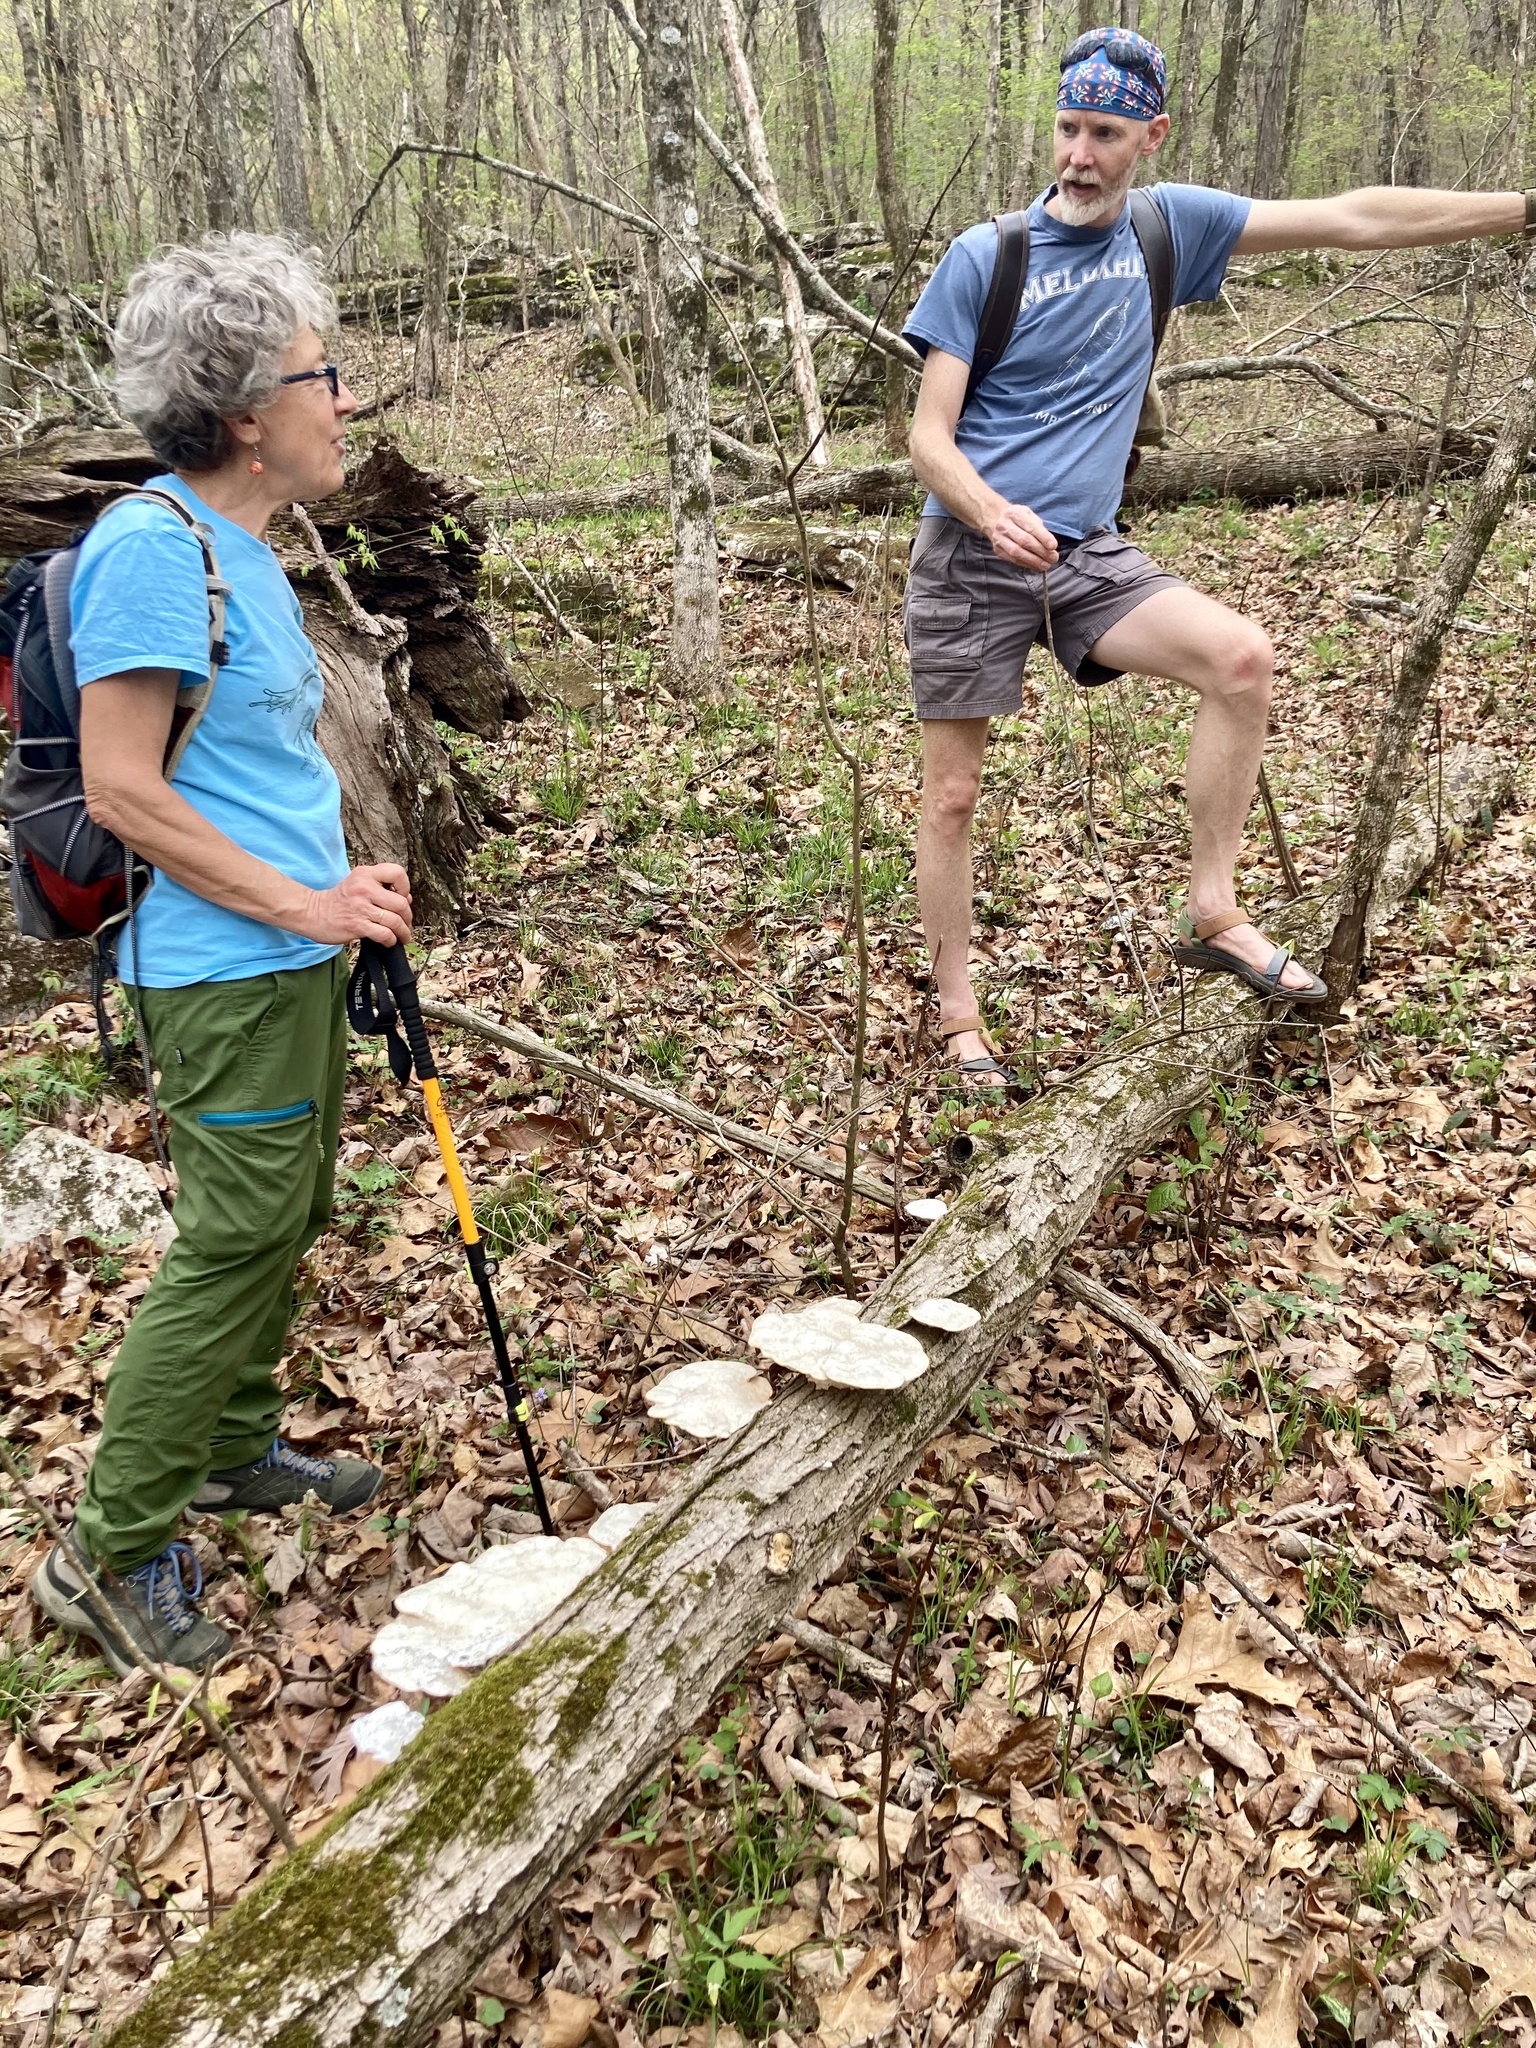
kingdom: Fungi
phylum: Basidiomycota
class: Agaricomycetes
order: Polyporales
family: Polyporaceae
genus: Trametes
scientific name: Trametes
